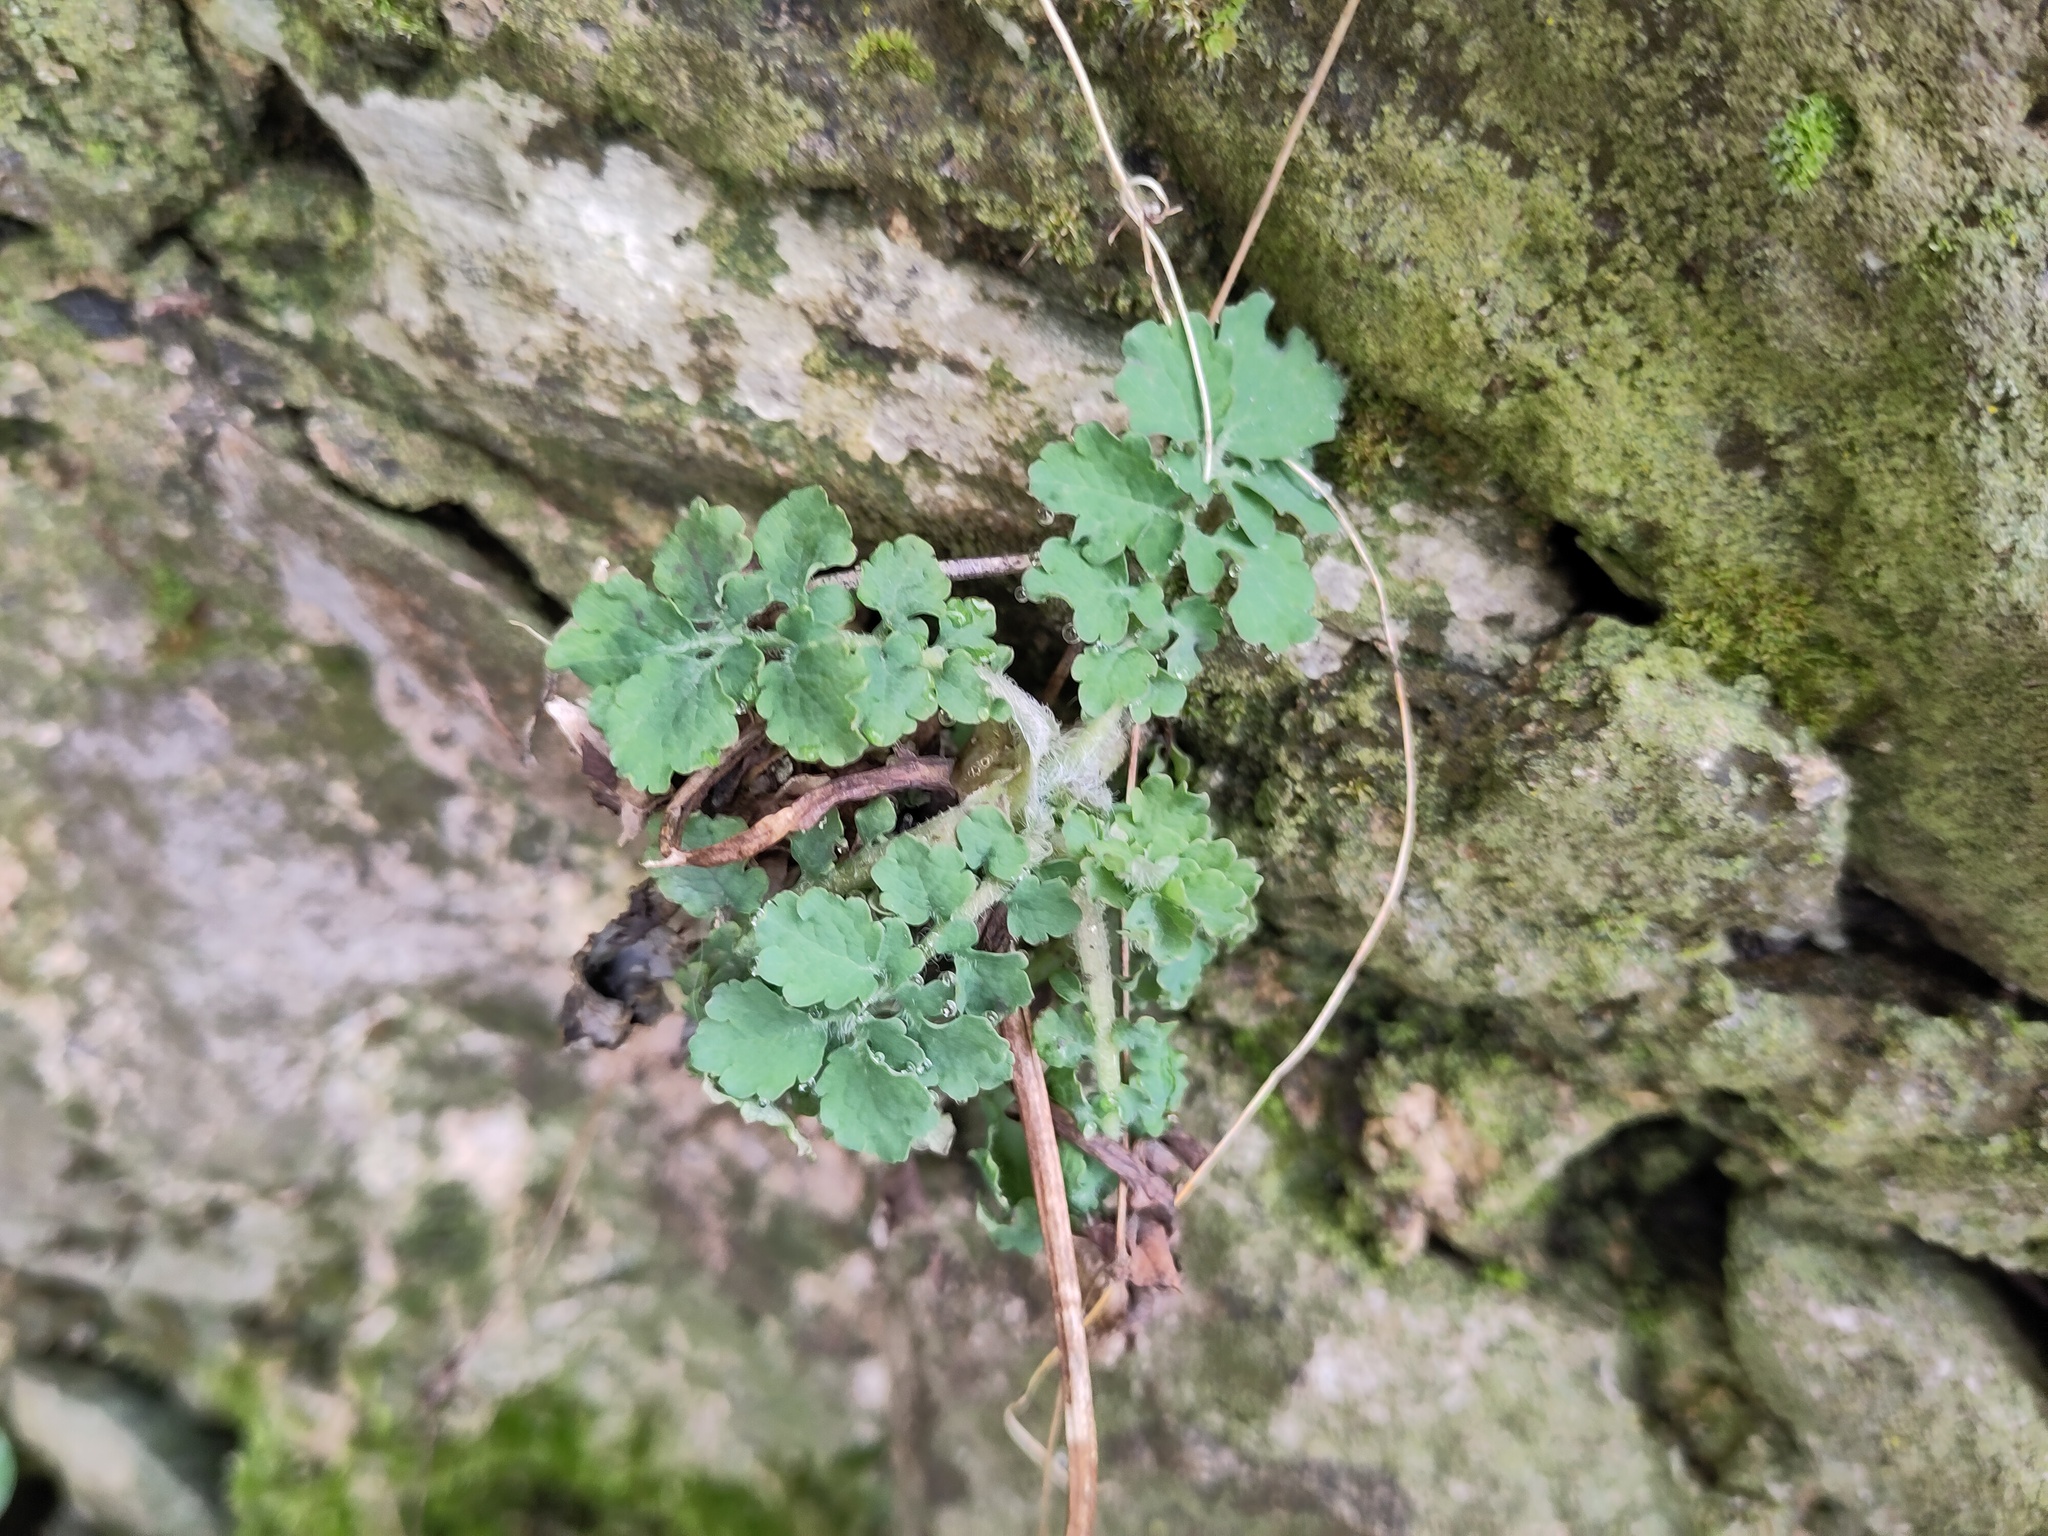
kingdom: Plantae
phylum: Tracheophyta
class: Magnoliopsida
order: Ranunculales
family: Papaveraceae
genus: Chelidonium
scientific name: Chelidonium majus
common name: Greater celandine
